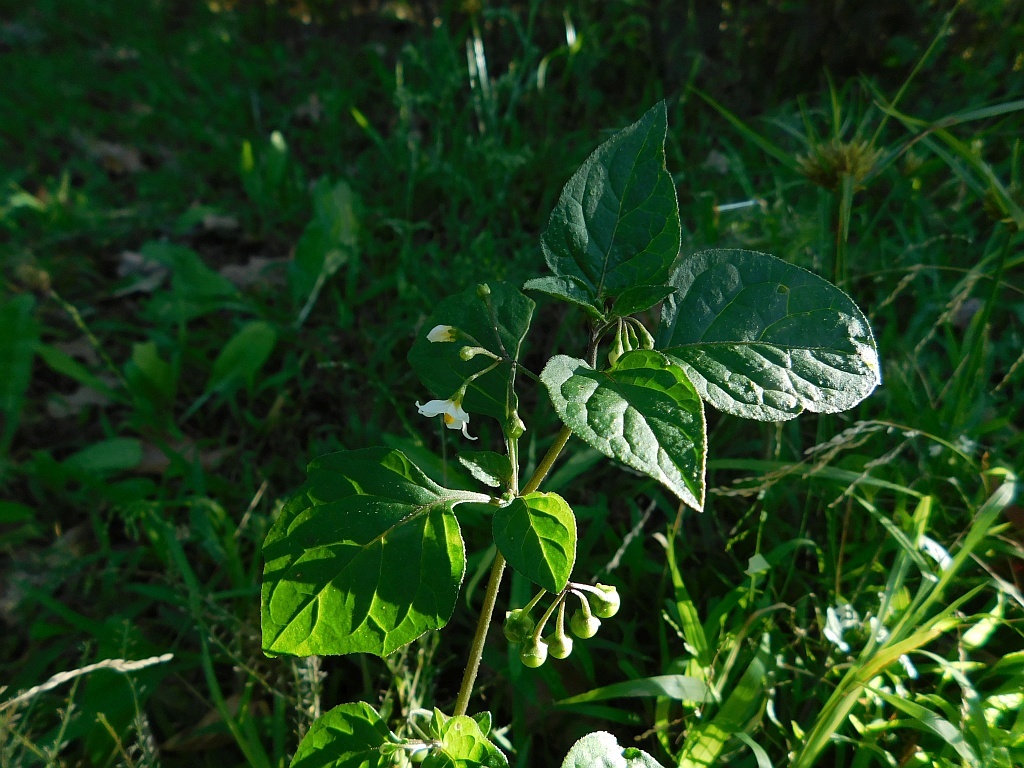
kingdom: Plantae
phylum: Tracheophyta
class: Magnoliopsida
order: Solanales
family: Solanaceae
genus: Solanum
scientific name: Solanum nigrum
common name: Black nightshade
